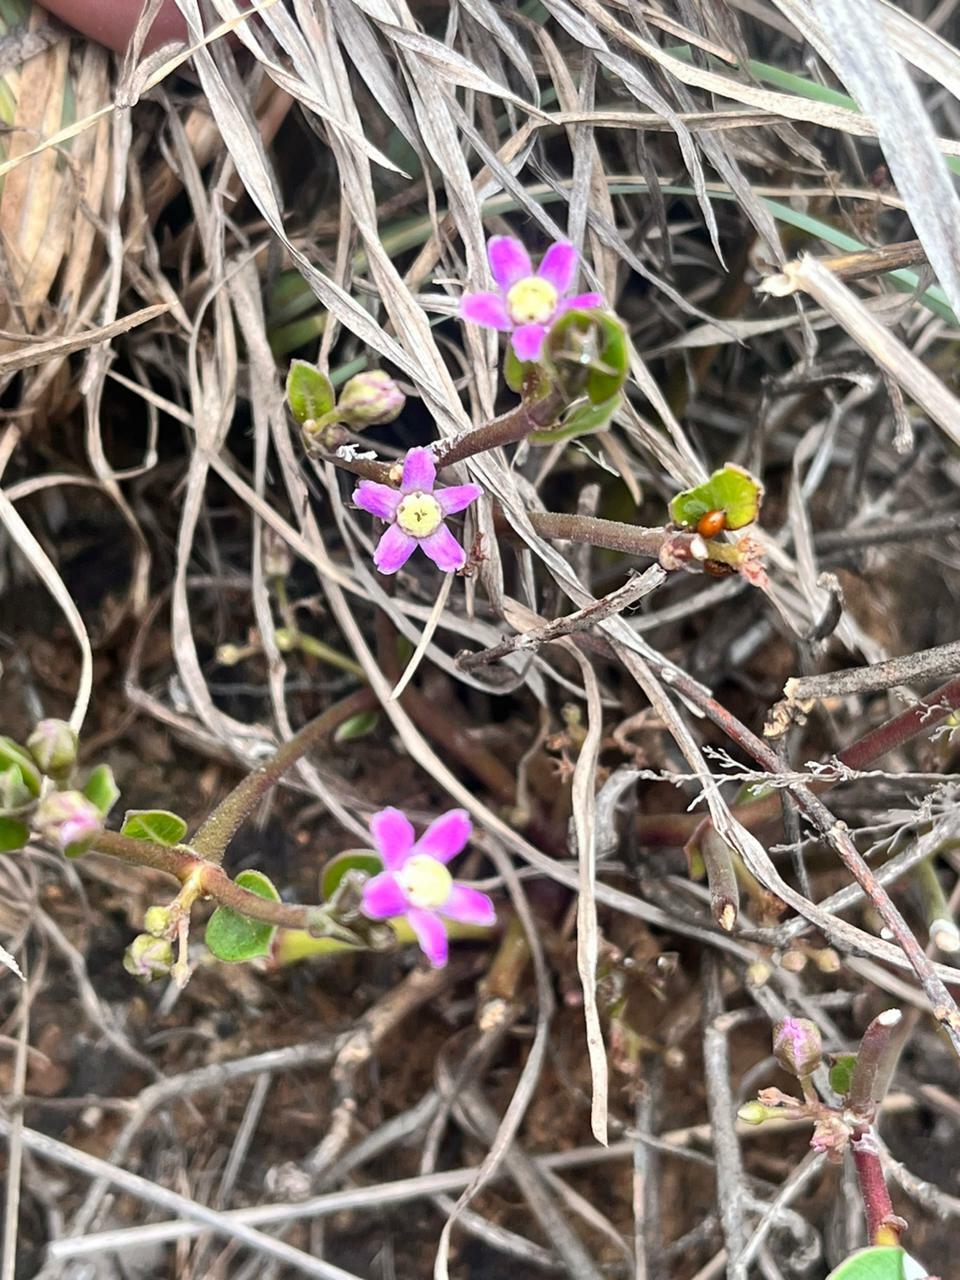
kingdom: Plantae
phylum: Tracheophyta
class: Magnoliopsida
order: Gentianales
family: Apocynaceae
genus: Raphionacme
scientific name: Raphionacme hirsuta
